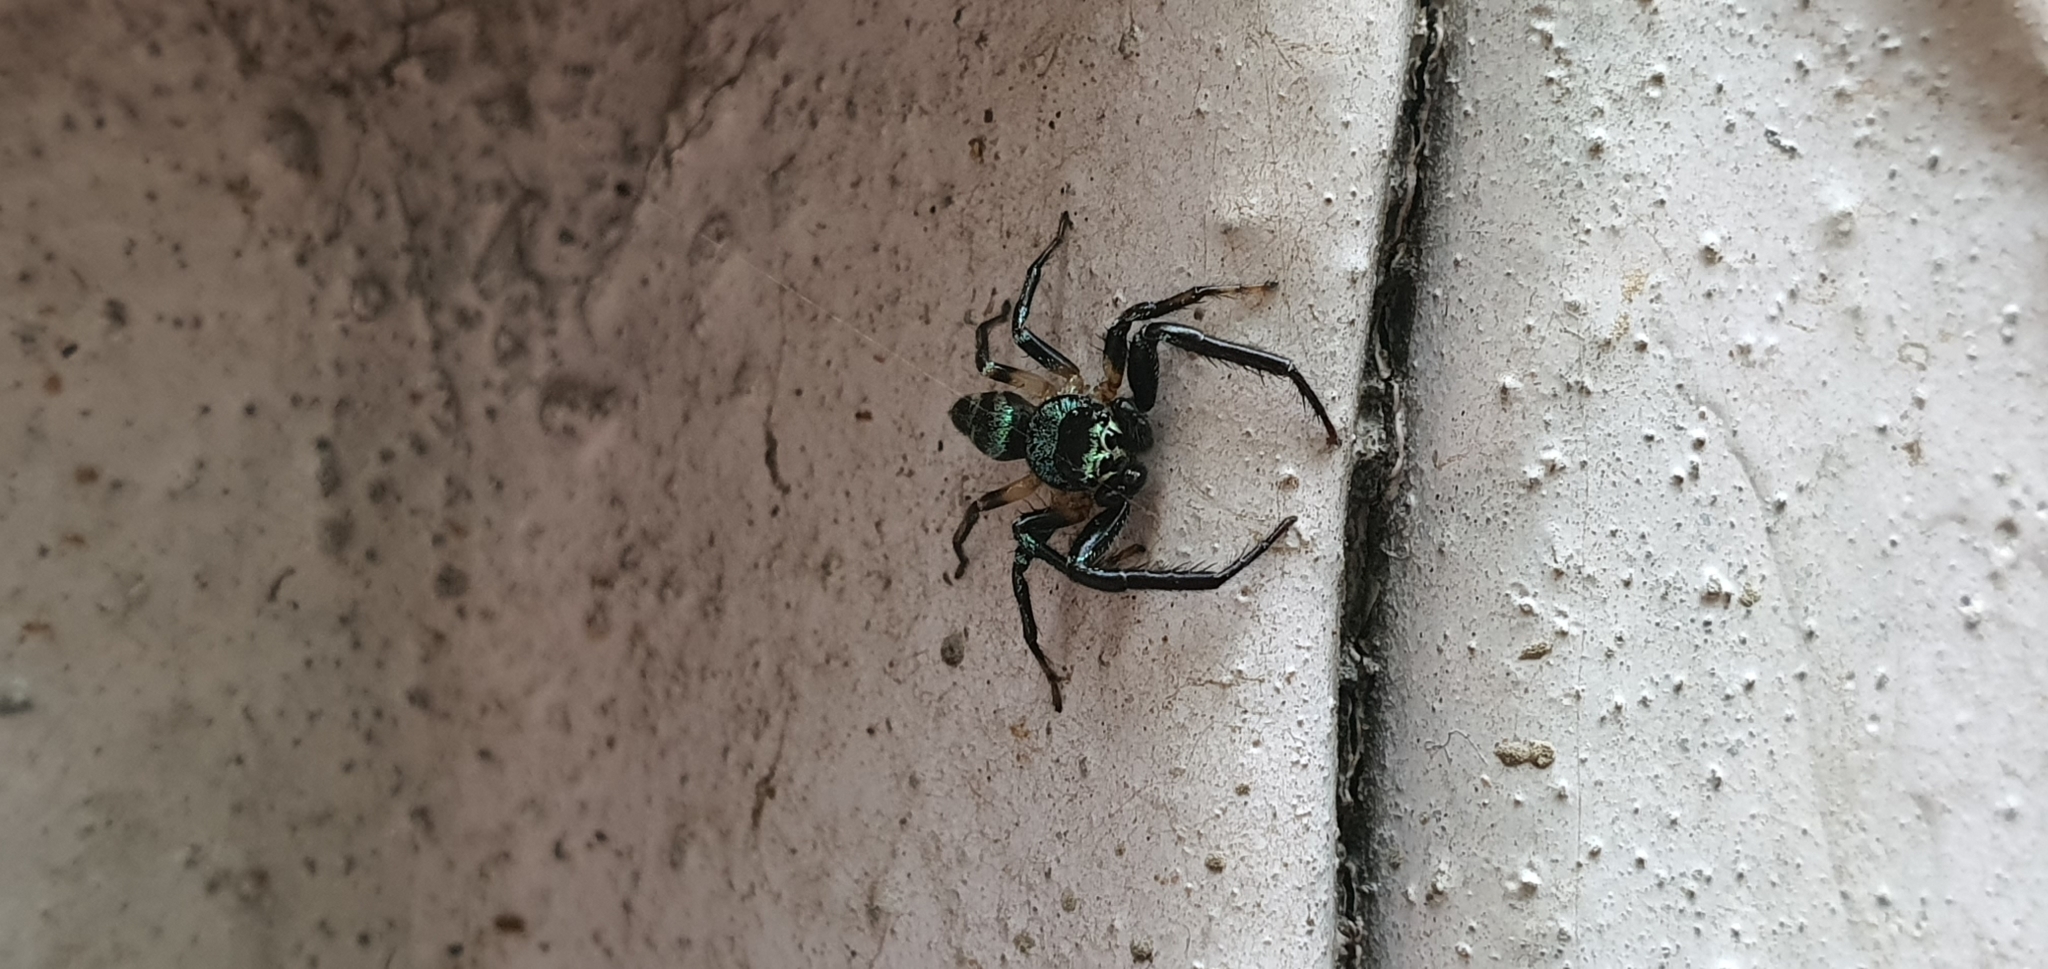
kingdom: Animalia
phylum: Arthropoda
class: Arachnida
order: Araneae
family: Salticidae
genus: Thiania
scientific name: Thiania bhamoensis
